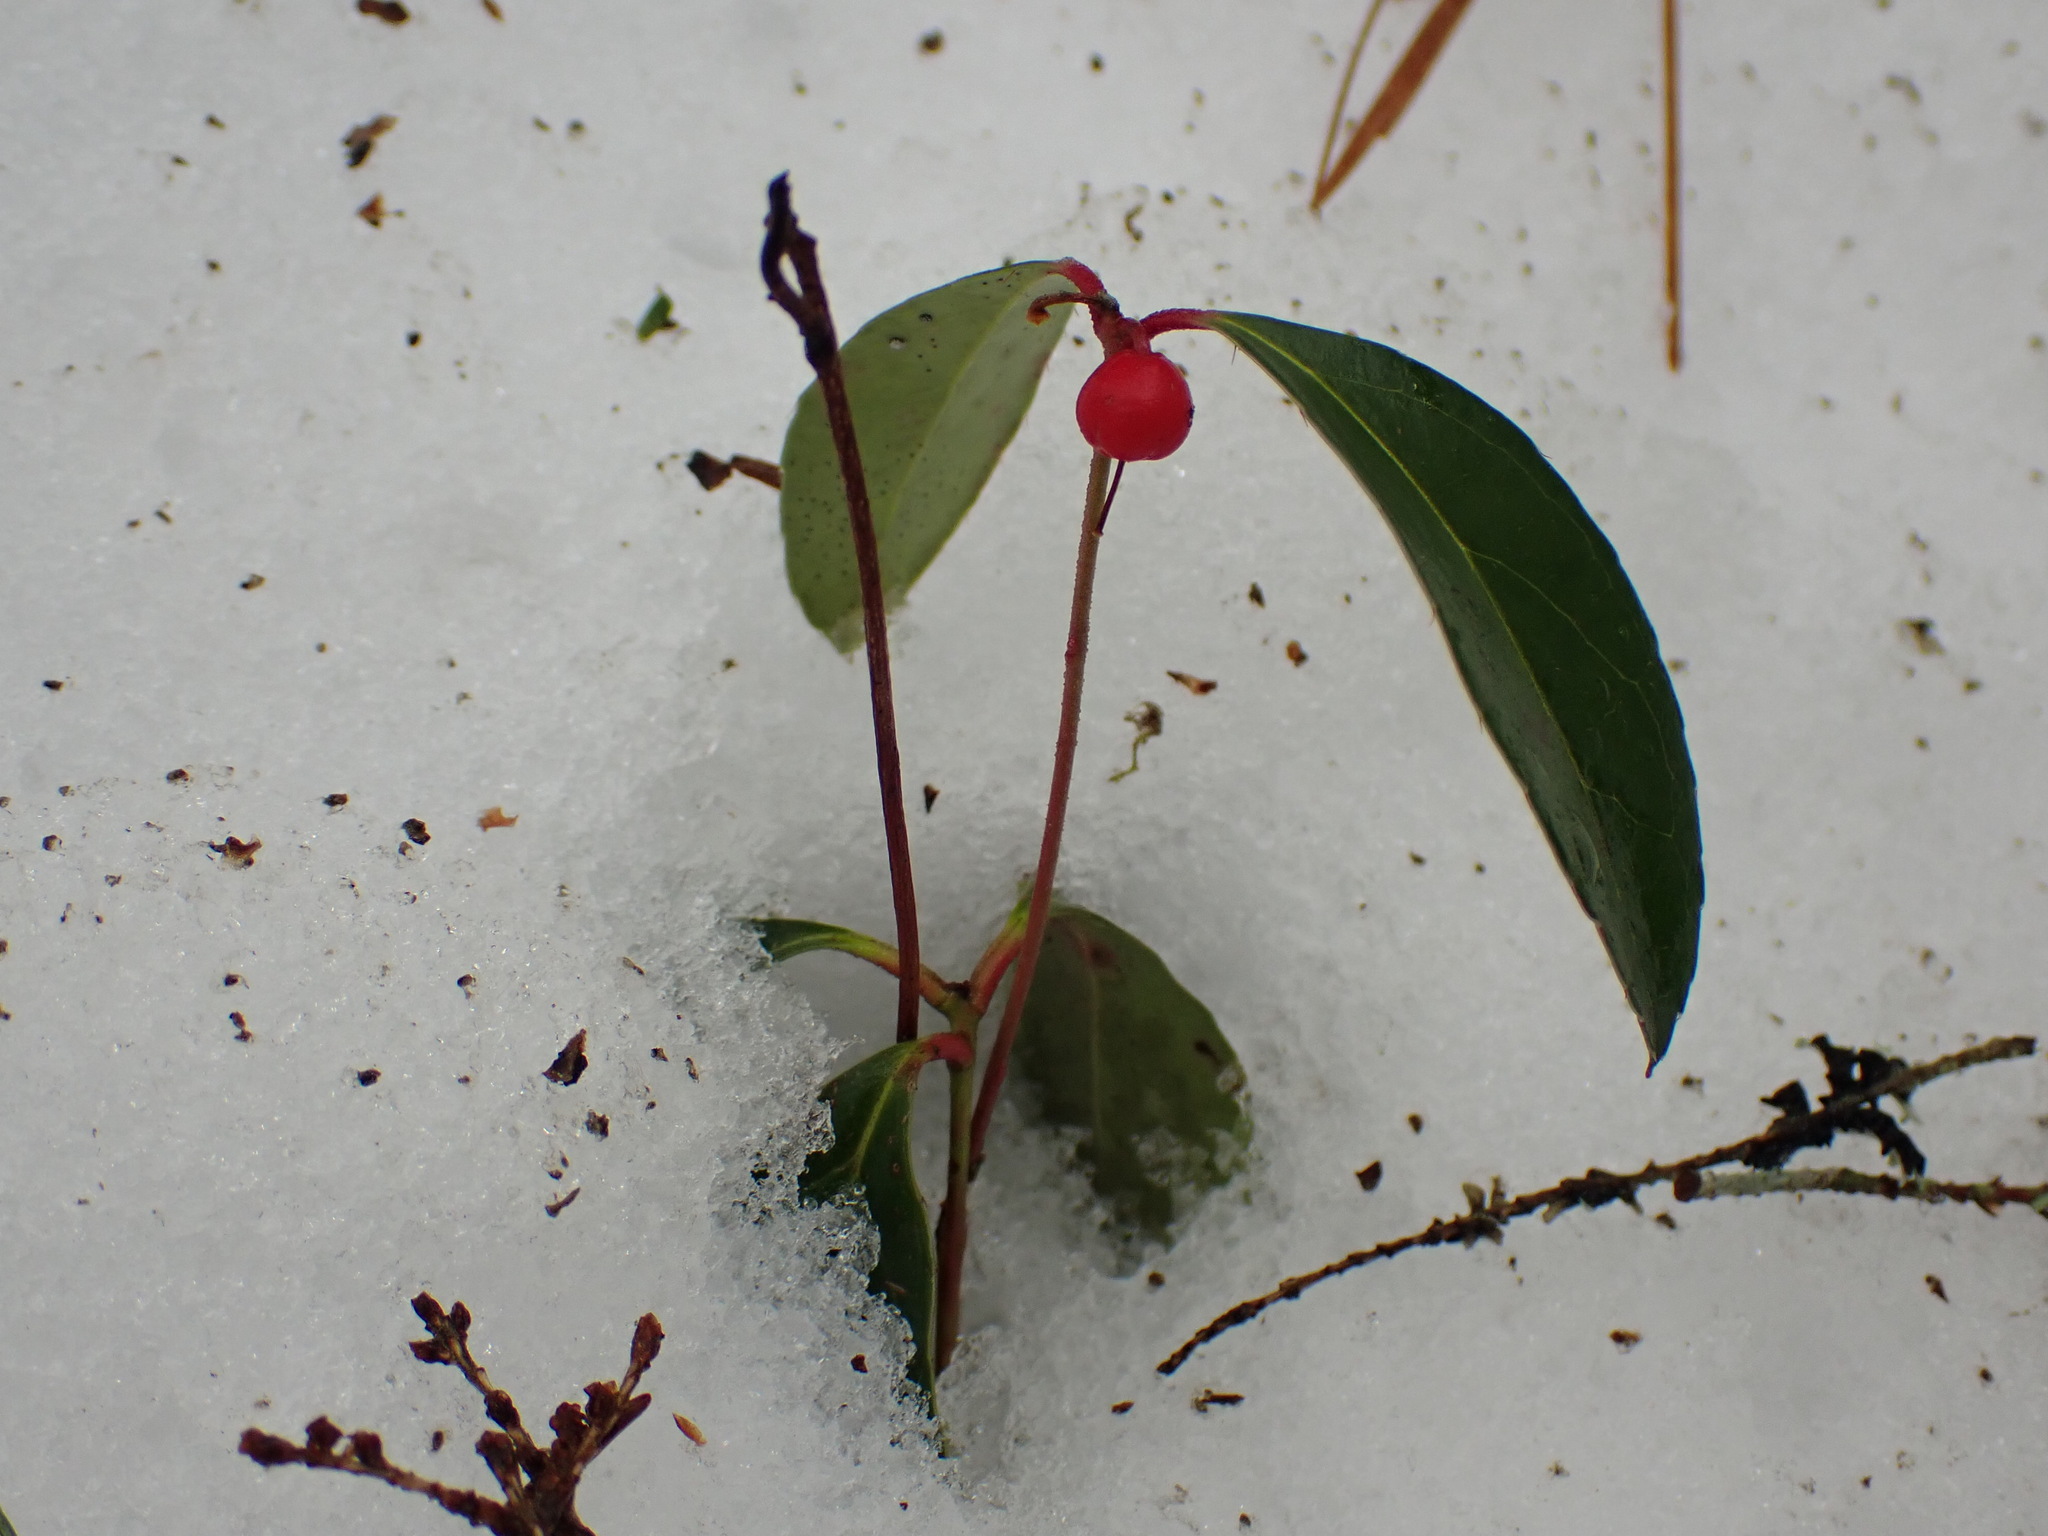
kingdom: Plantae
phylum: Tracheophyta
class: Magnoliopsida
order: Ericales
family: Ericaceae
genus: Gaultheria
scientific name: Gaultheria procumbens
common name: Checkerberry
